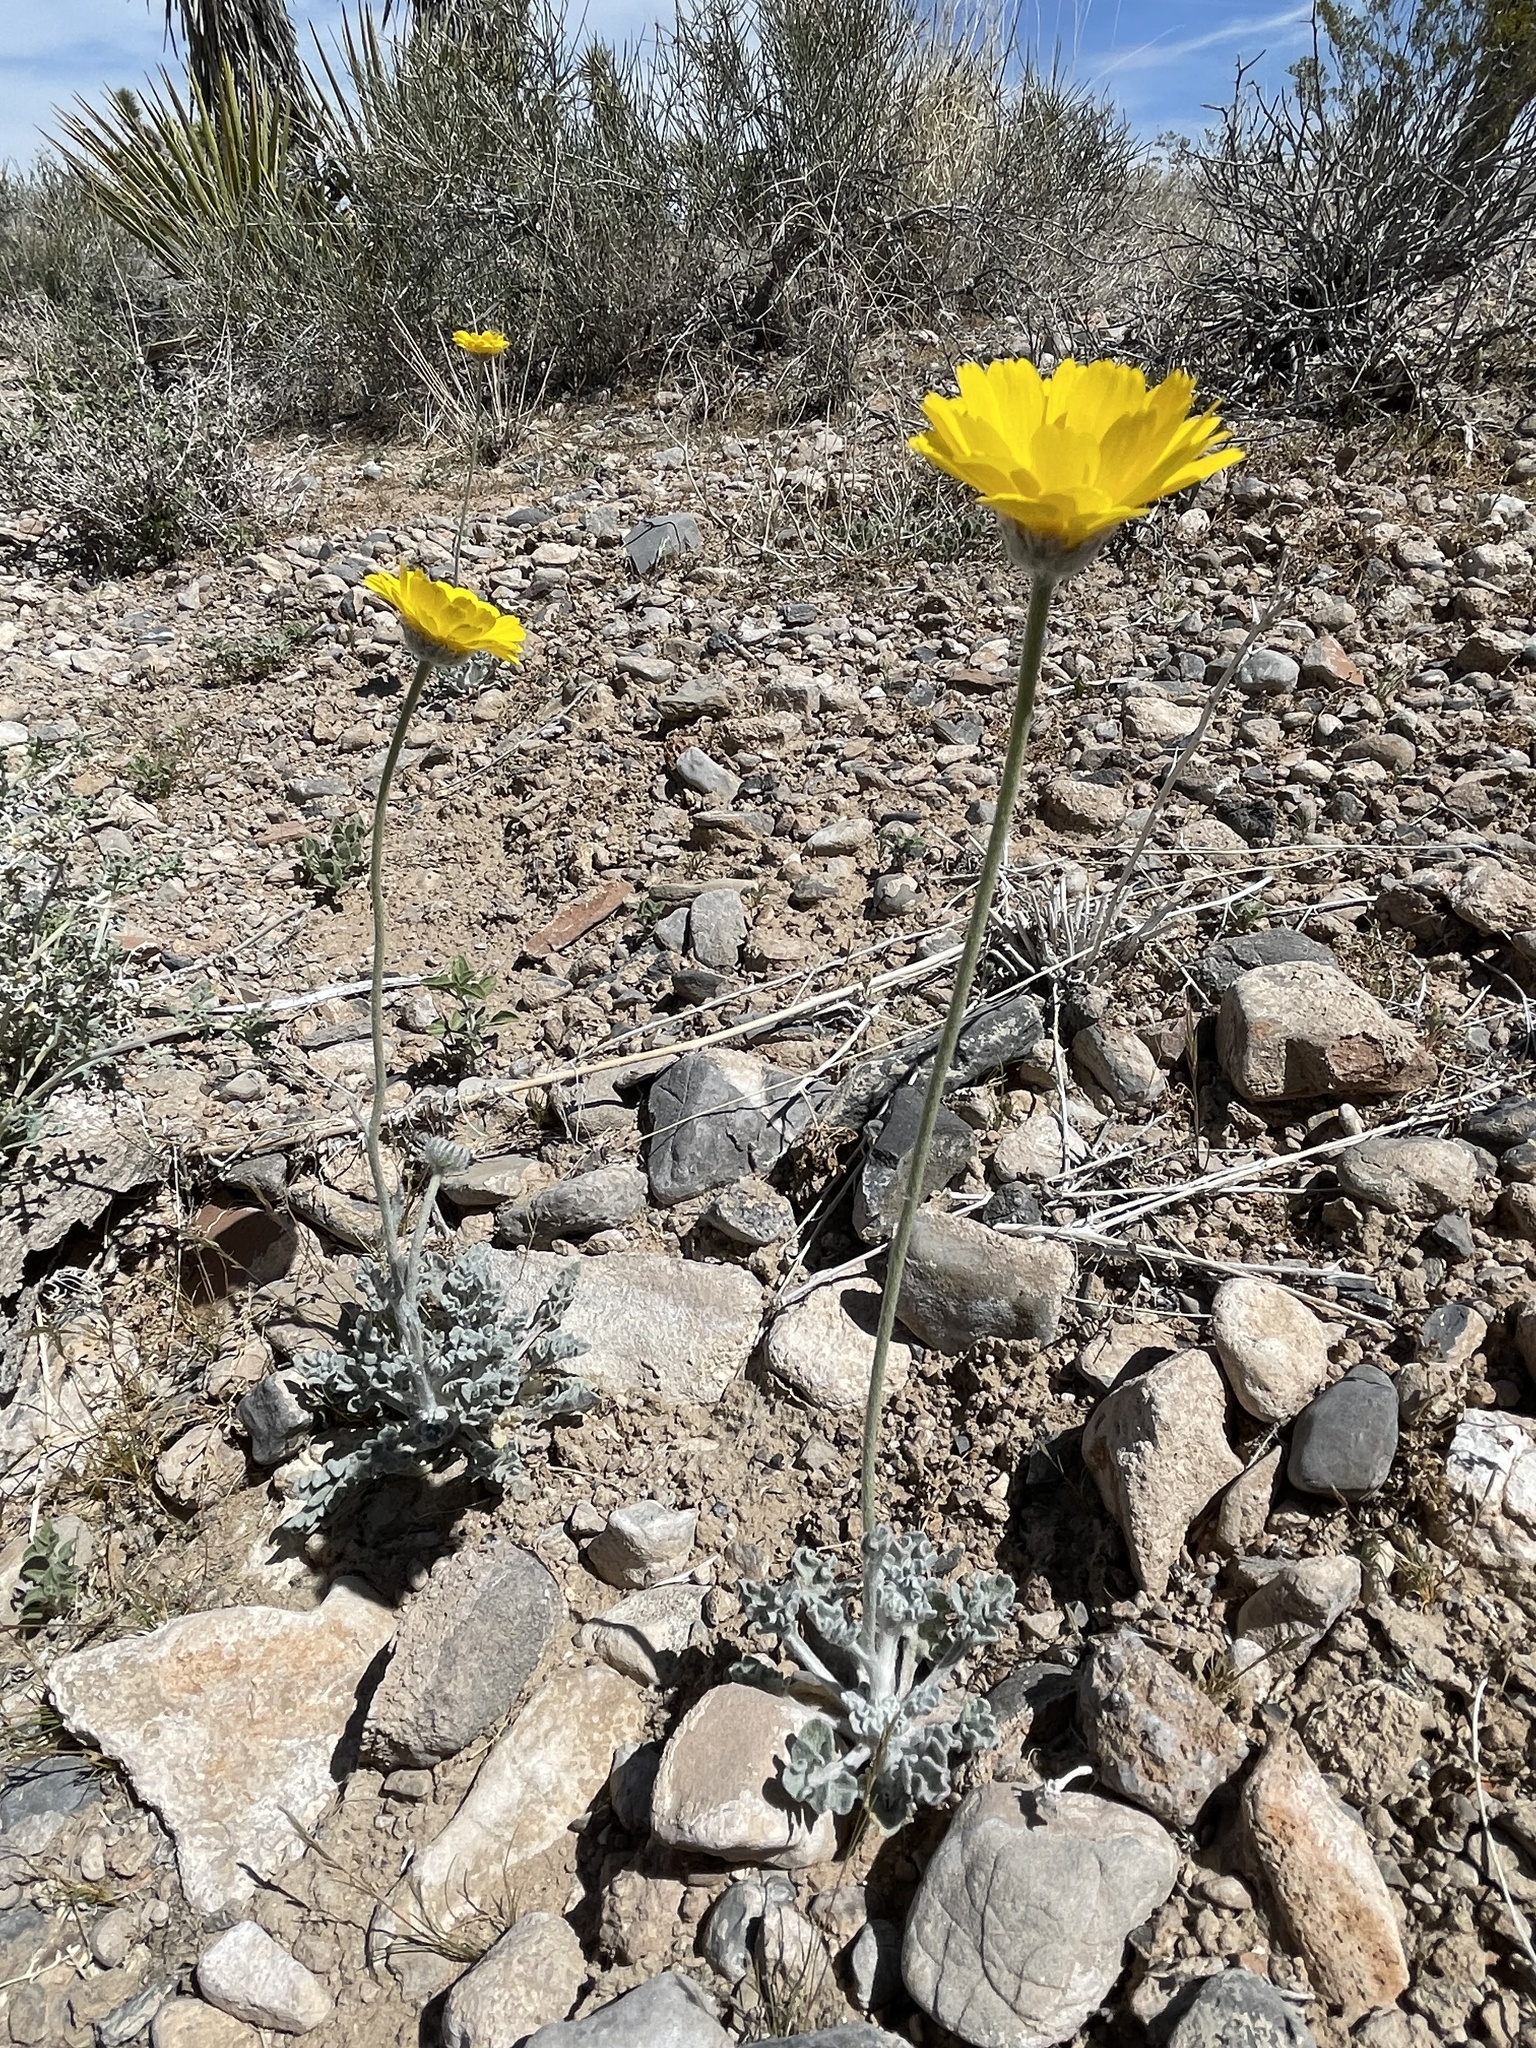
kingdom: Plantae
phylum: Tracheophyta
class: Magnoliopsida
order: Asterales
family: Asteraceae
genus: Baileya
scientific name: Baileya multiradiata
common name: Desert-marigold
